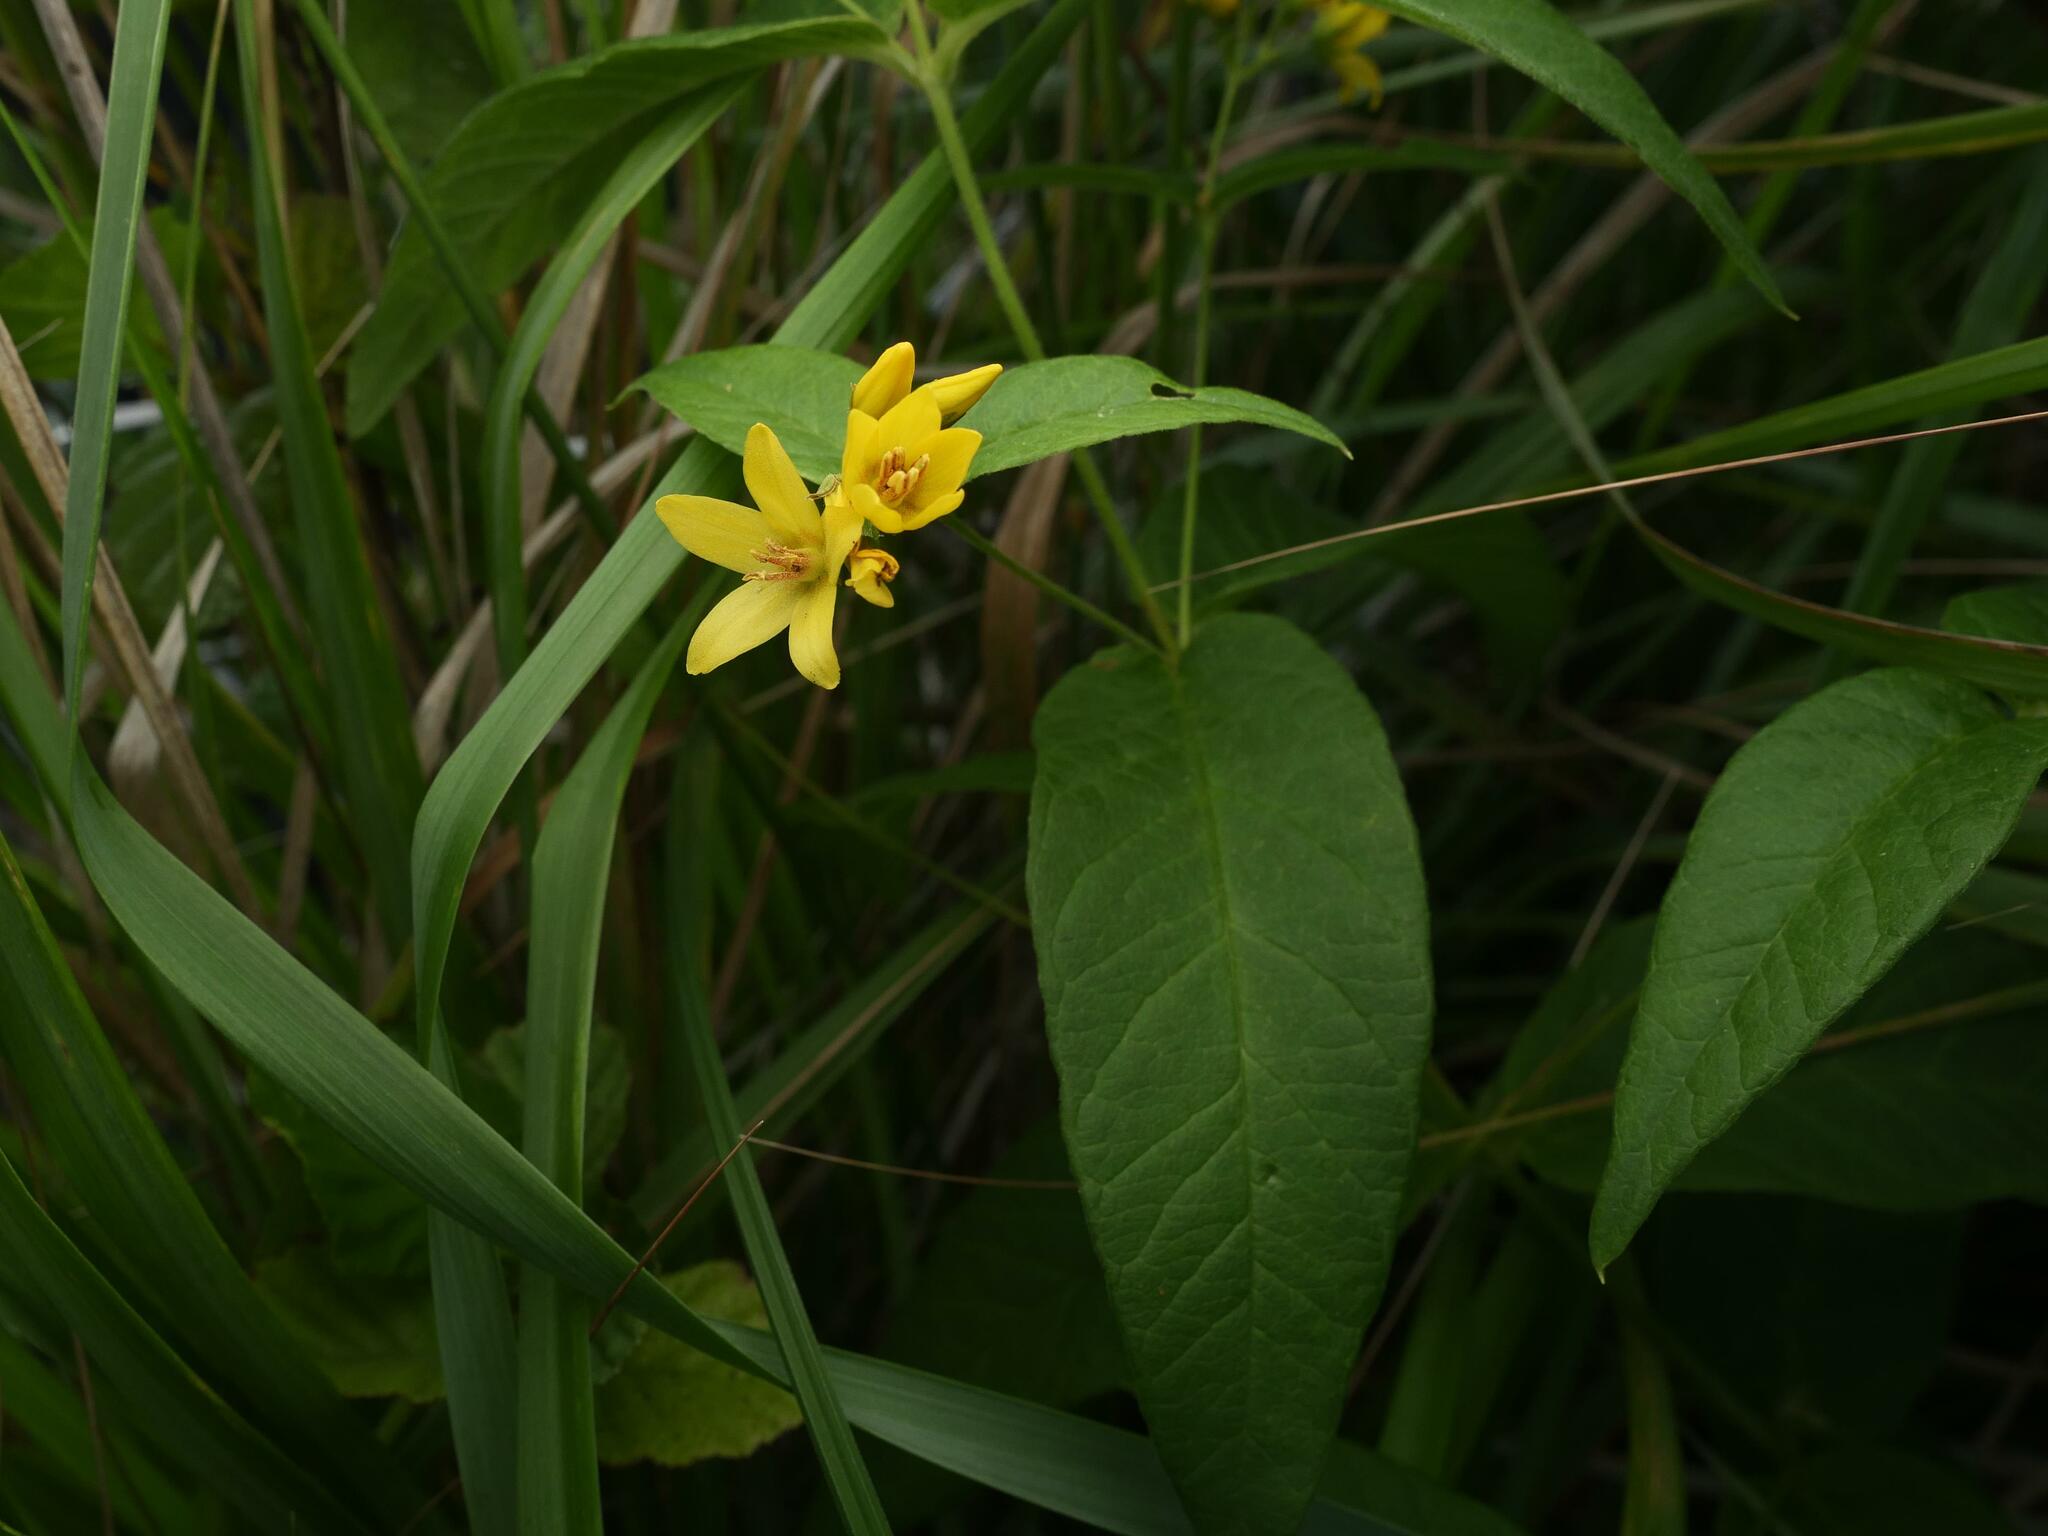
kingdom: Plantae
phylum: Tracheophyta
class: Magnoliopsida
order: Ericales
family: Primulaceae
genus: Lysimachia
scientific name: Lysimachia vulgaris
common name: Yellow loosestrife
